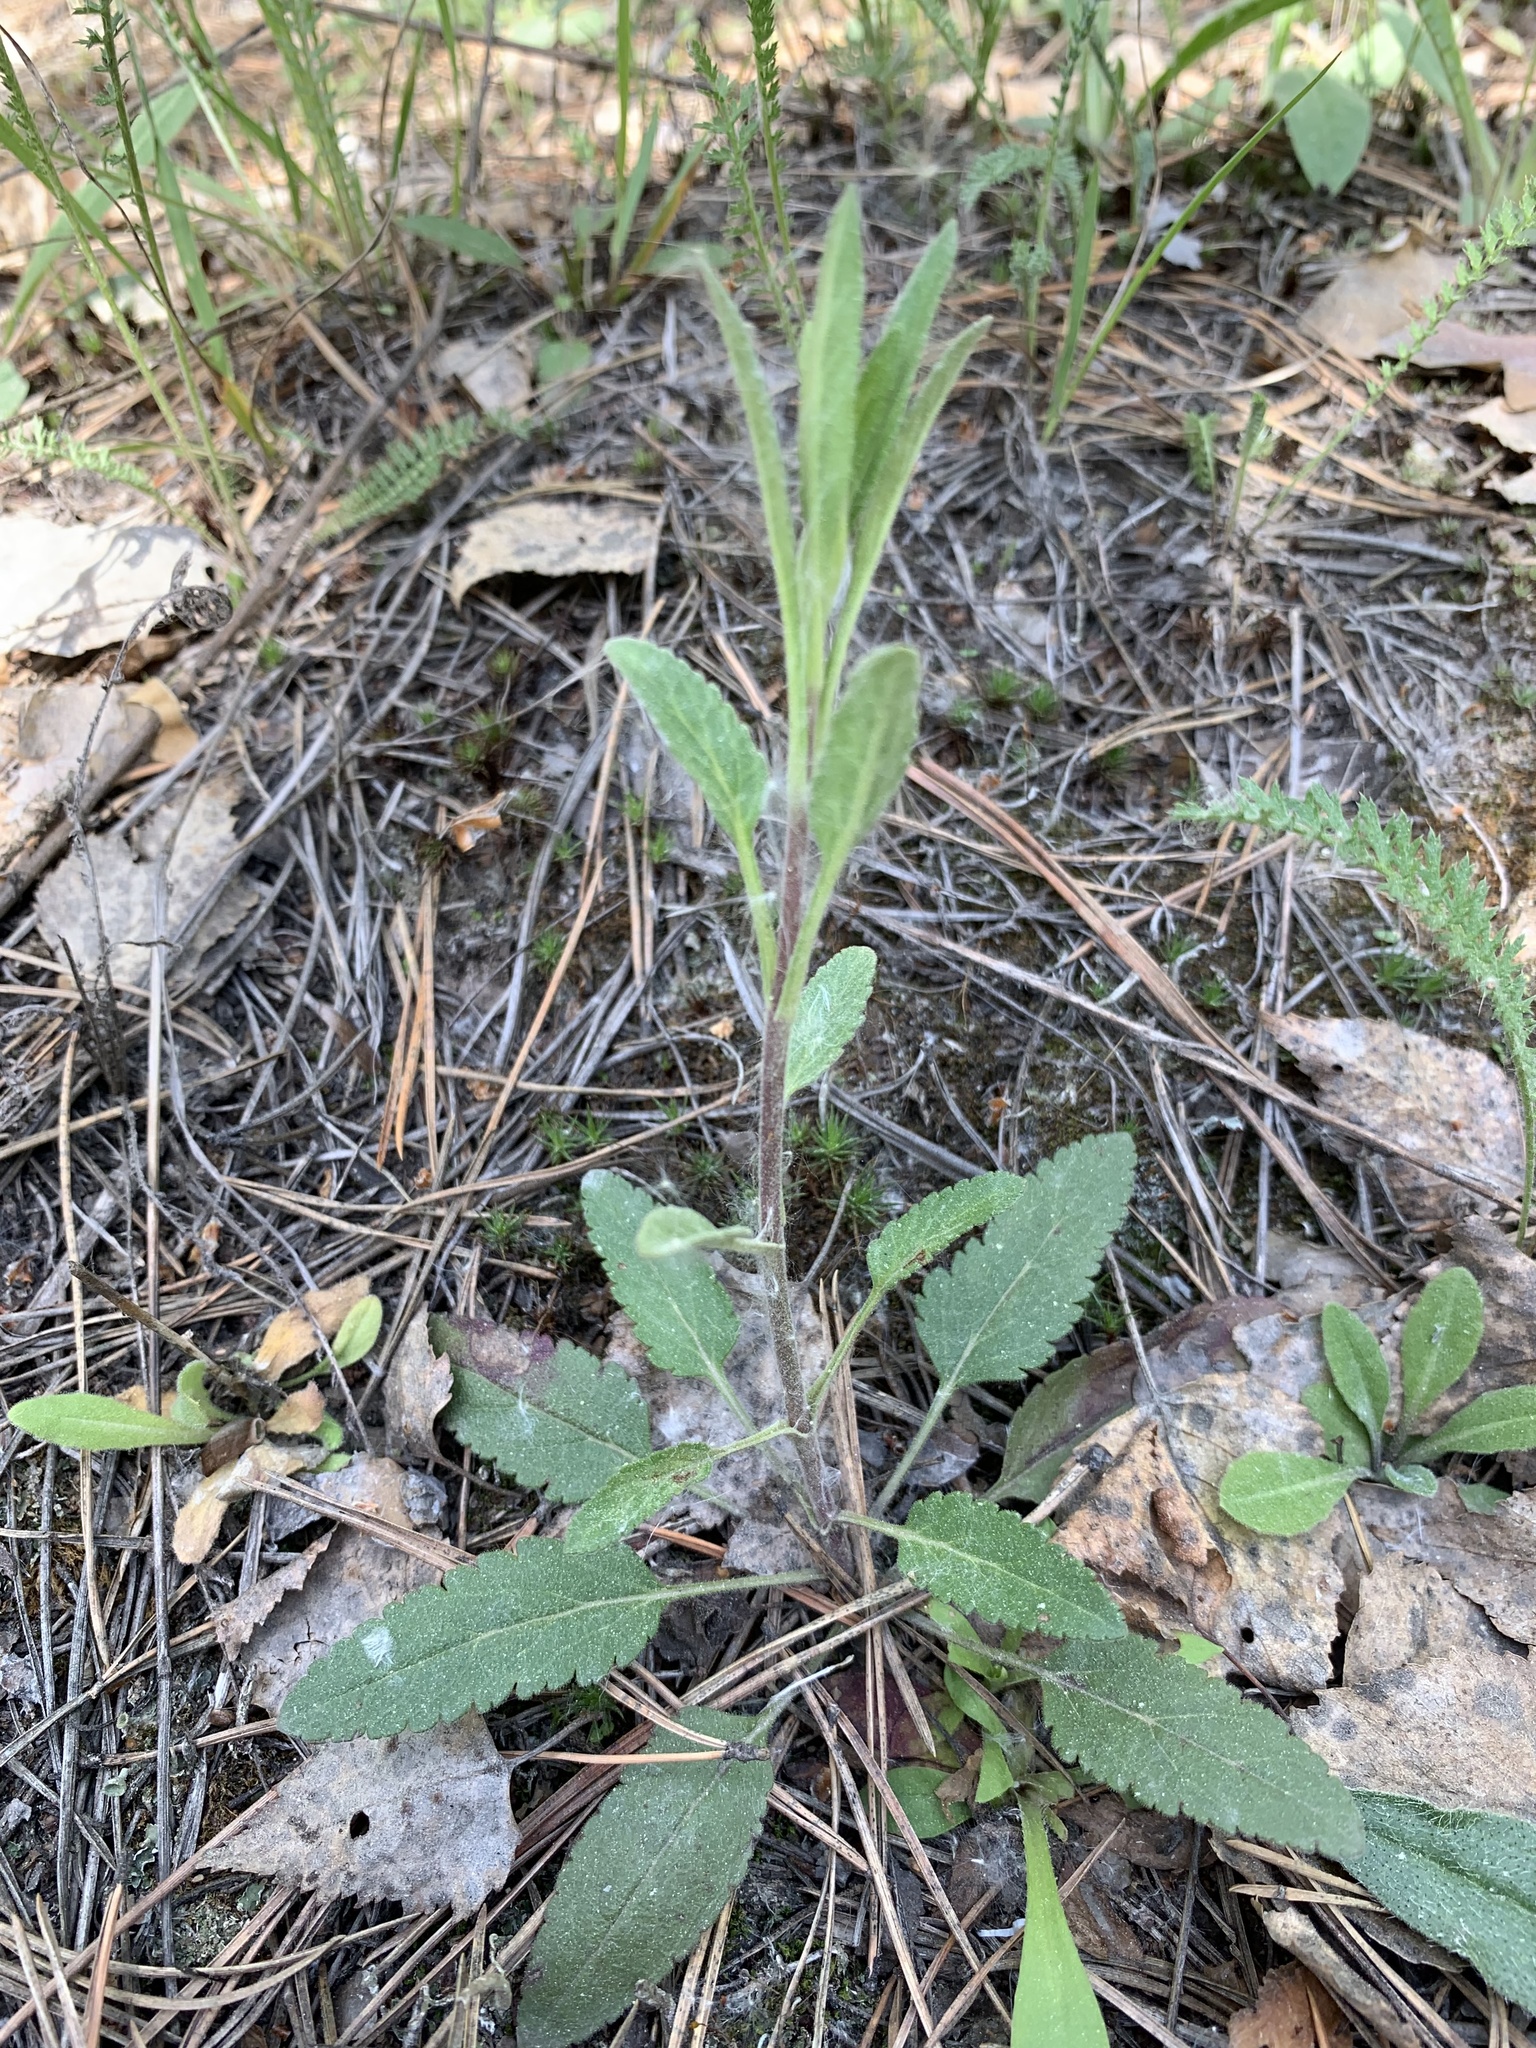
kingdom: Plantae
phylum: Tracheophyta
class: Magnoliopsida
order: Lamiales
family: Plantaginaceae
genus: Veronica
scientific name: Veronica spicata
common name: Spiked speedwell
